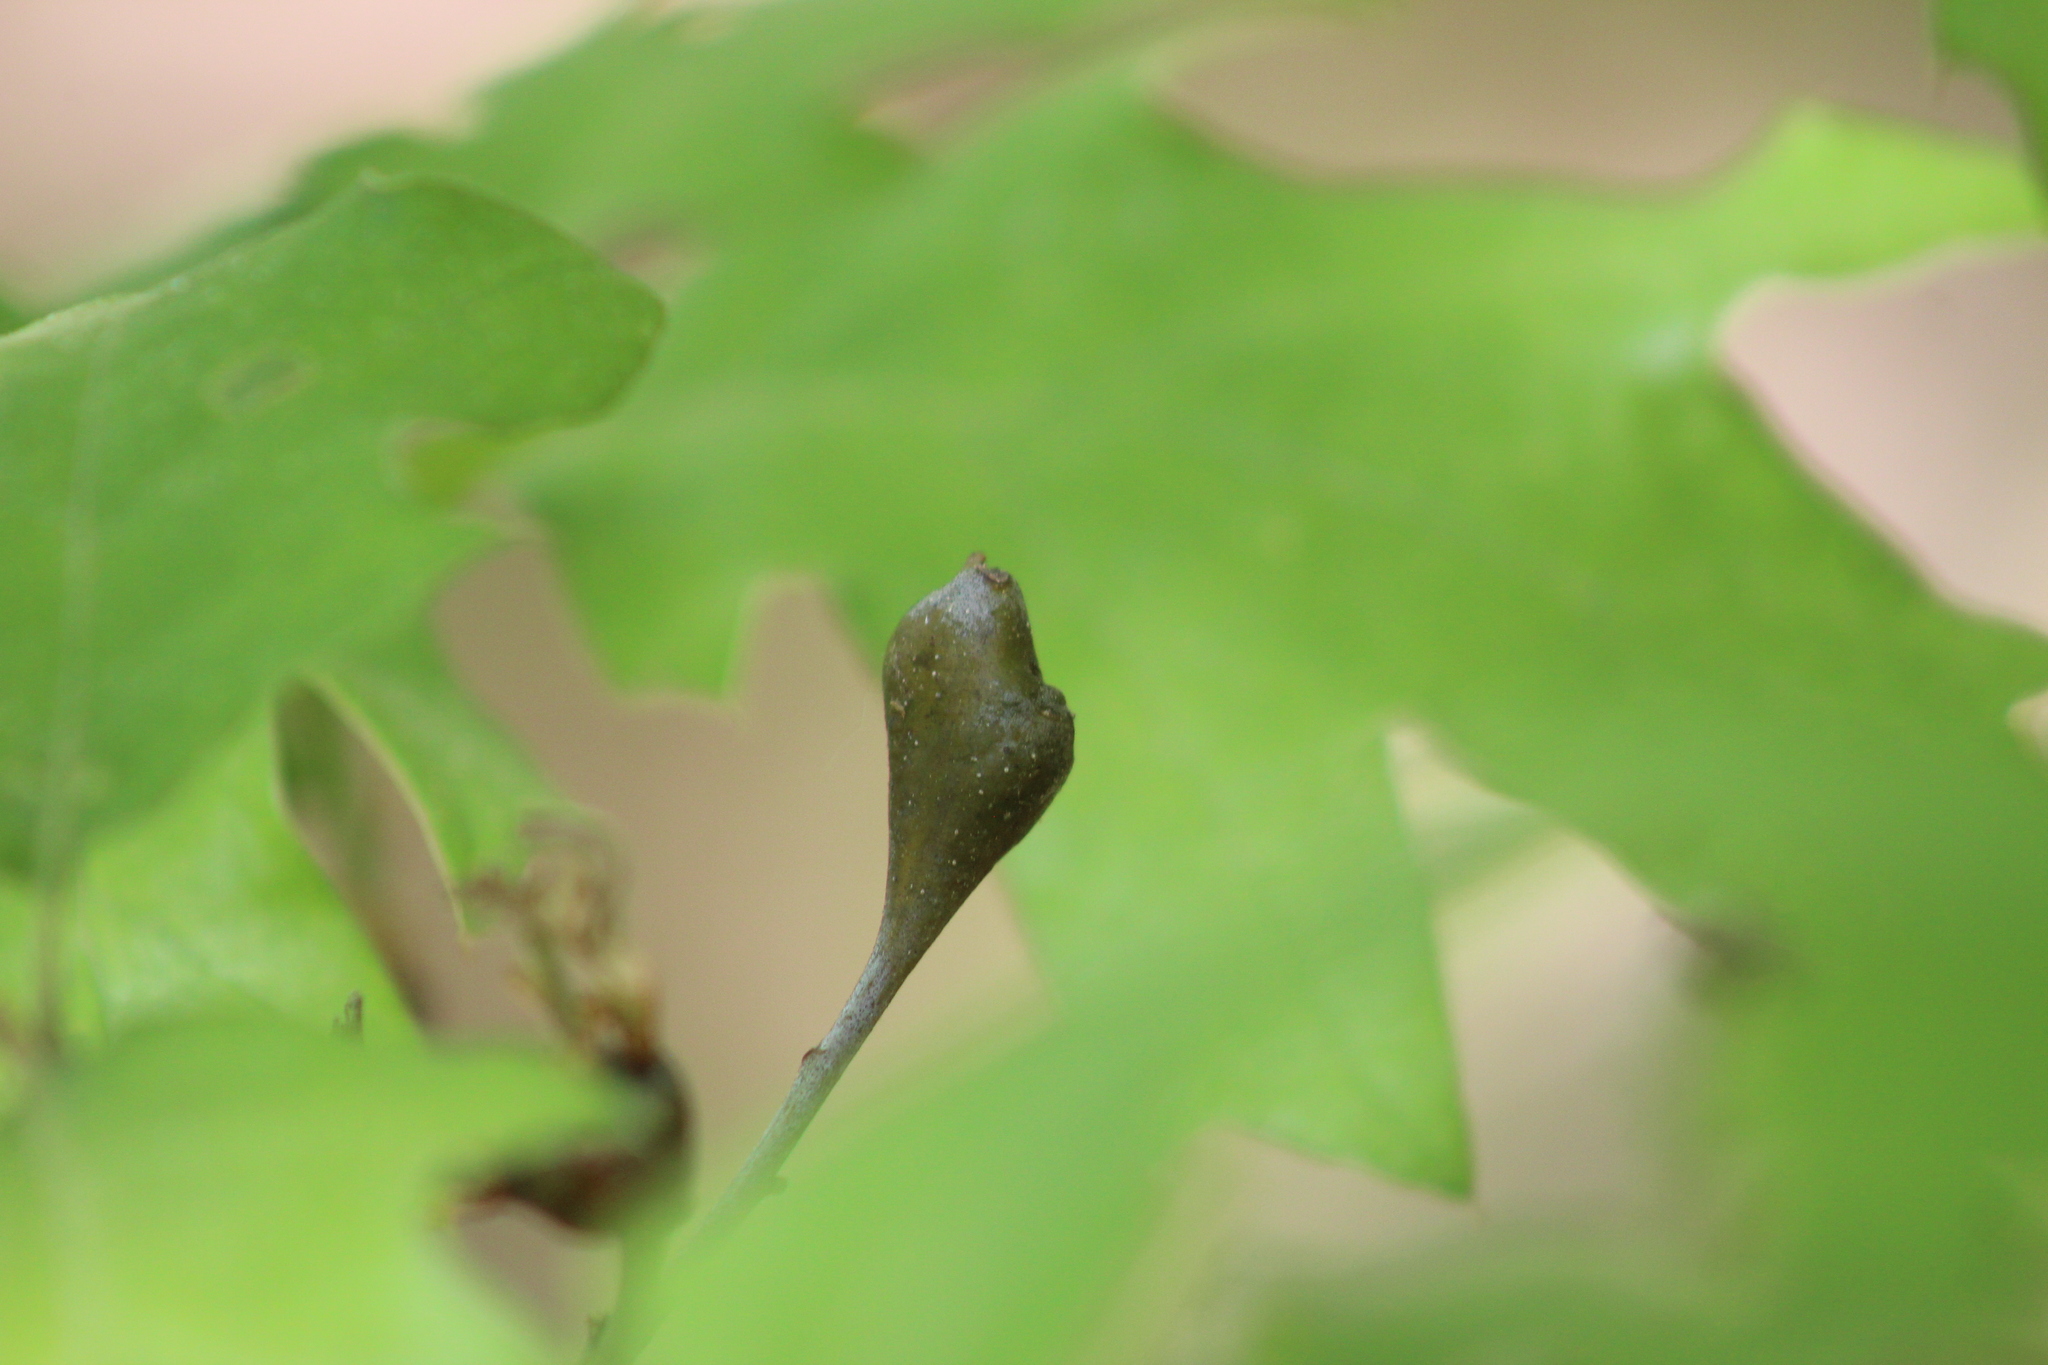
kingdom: Animalia
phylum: Arthropoda
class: Insecta
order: Hymenoptera
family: Cynipidae
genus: Zapatella
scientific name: Zapatella quercusphellos
